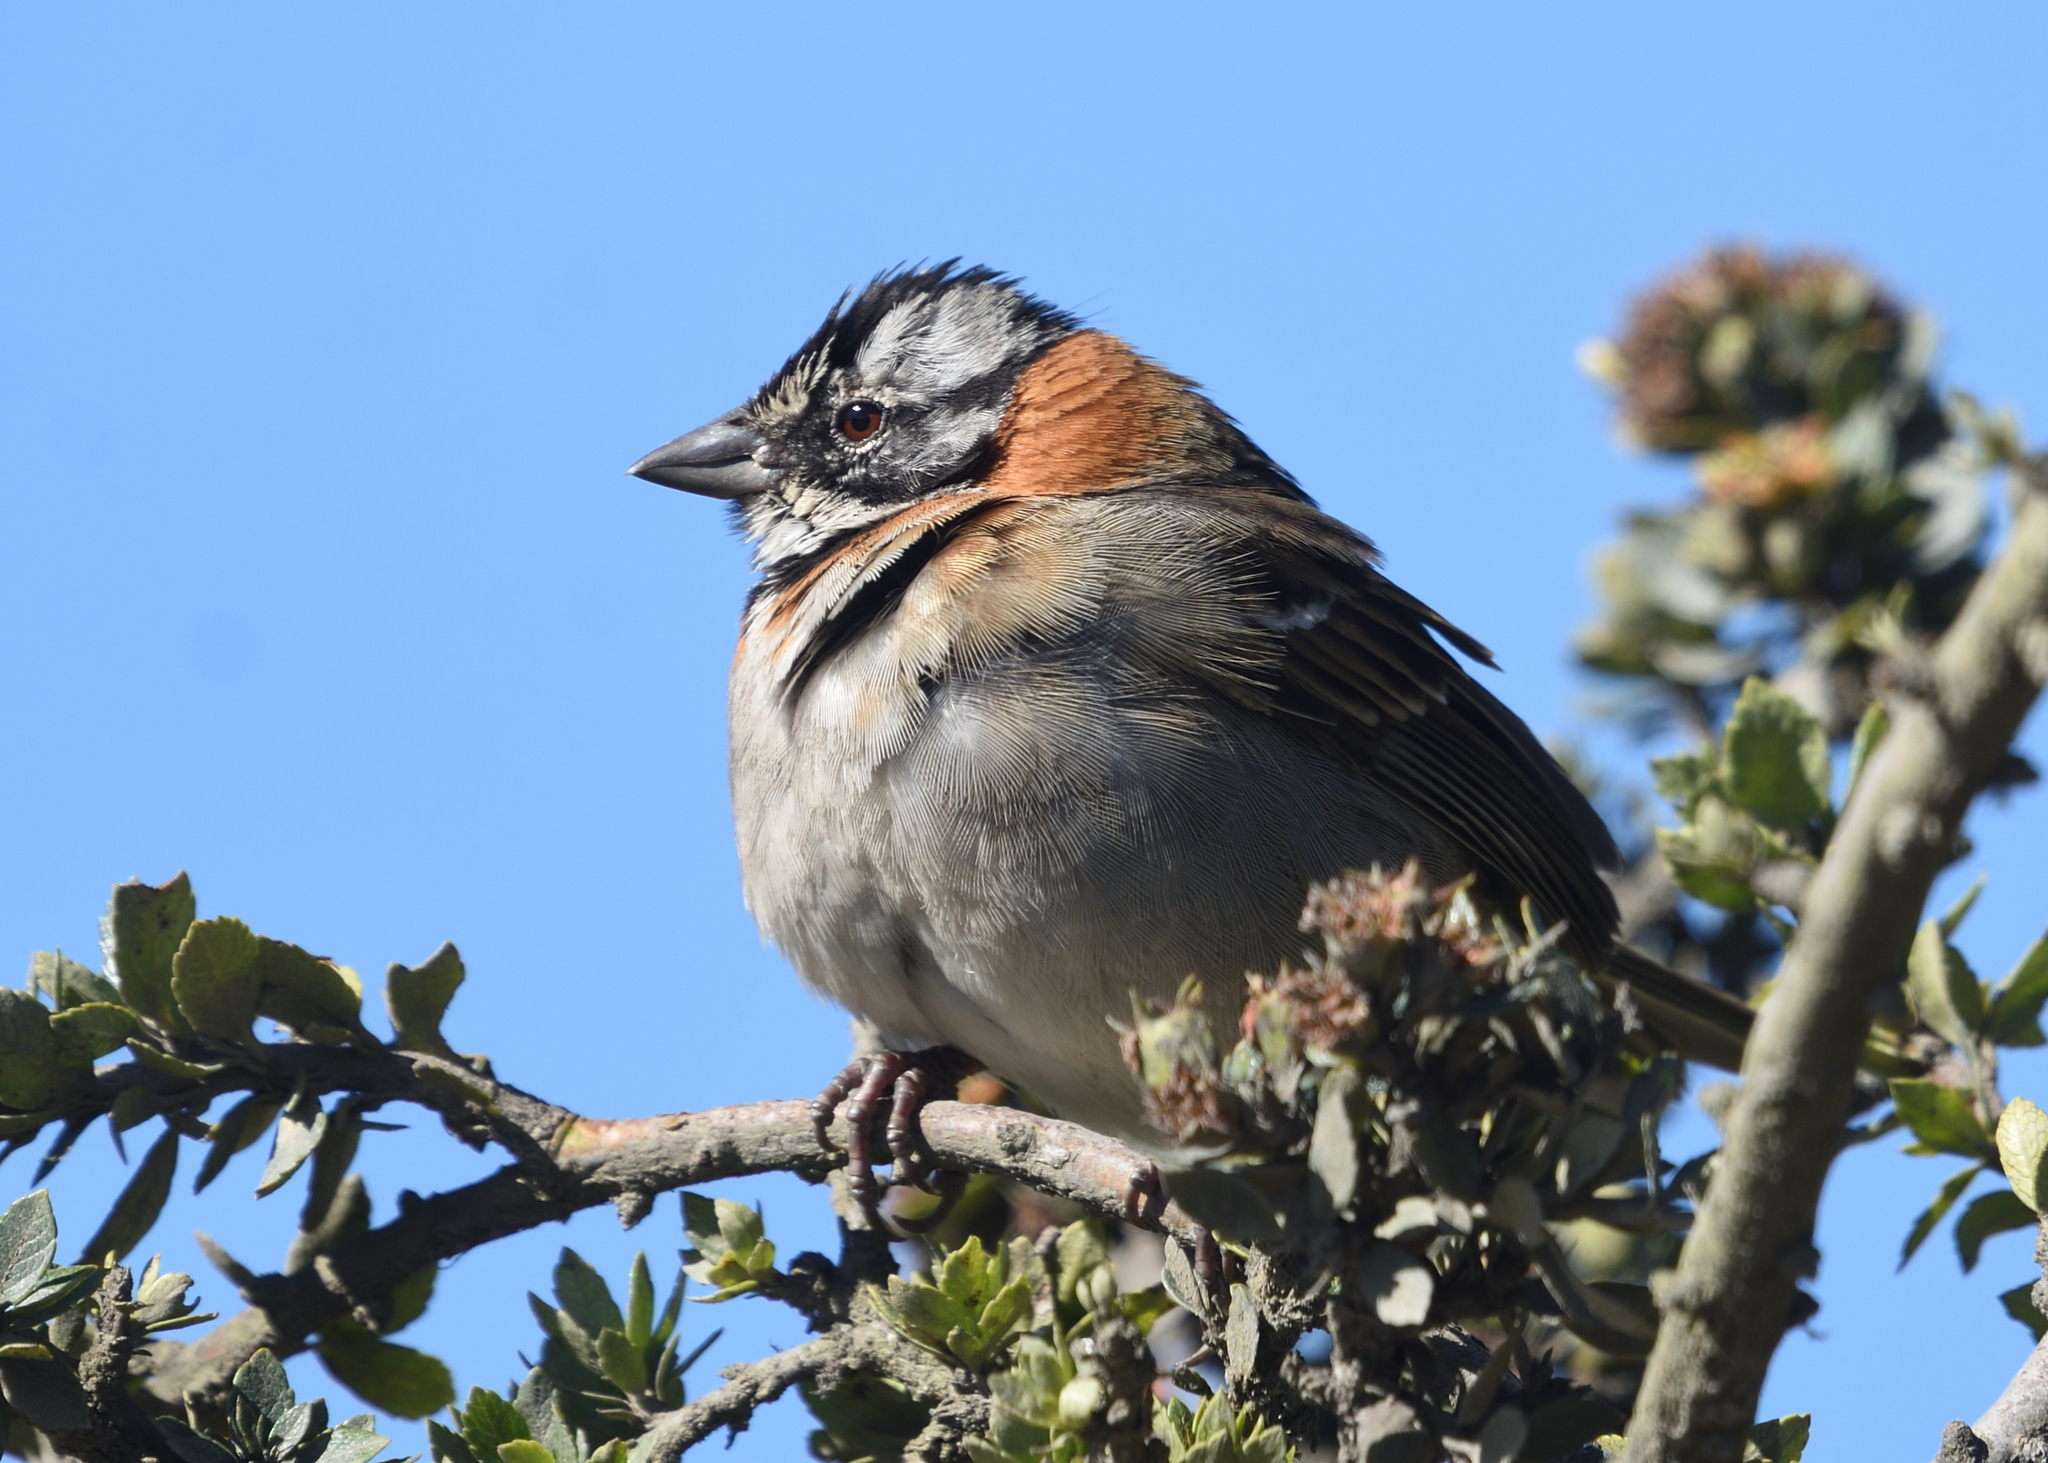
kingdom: Animalia
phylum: Chordata
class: Aves
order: Passeriformes
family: Passerellidae
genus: Zonotrichia
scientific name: Zonotrichia capensis
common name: Rufous-collared sparrow
